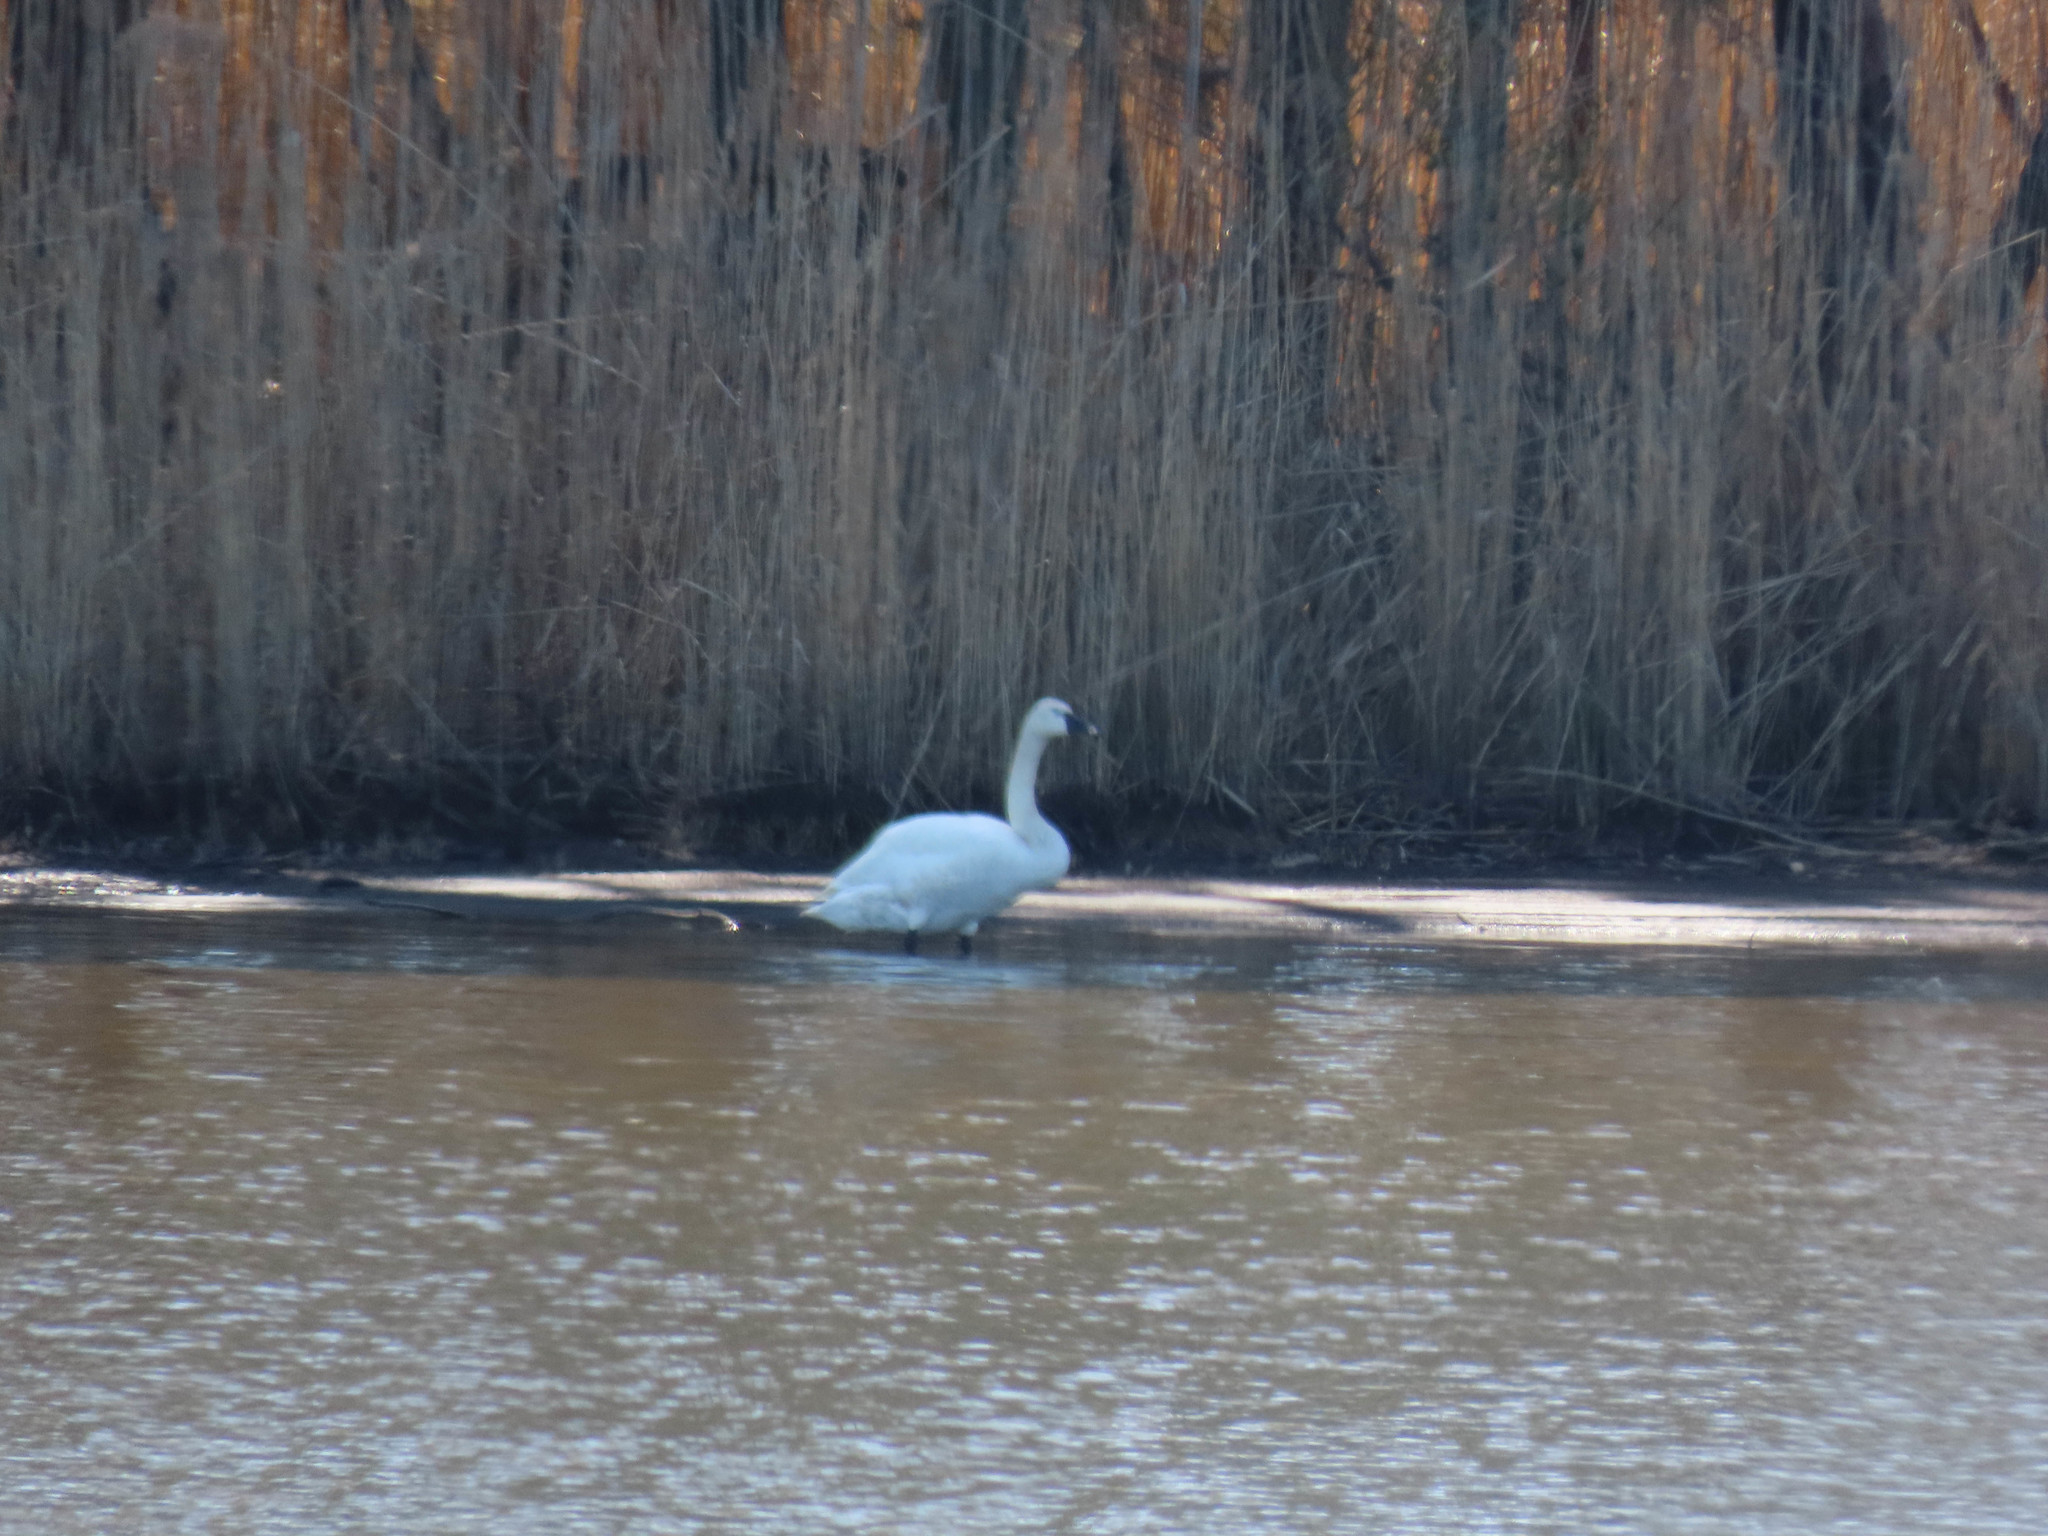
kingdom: Animalia
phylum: Chordata
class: Aves
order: Anseriformes
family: Anatidae
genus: Cygnus
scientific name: Cygnus columbianus
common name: Tundra swan
